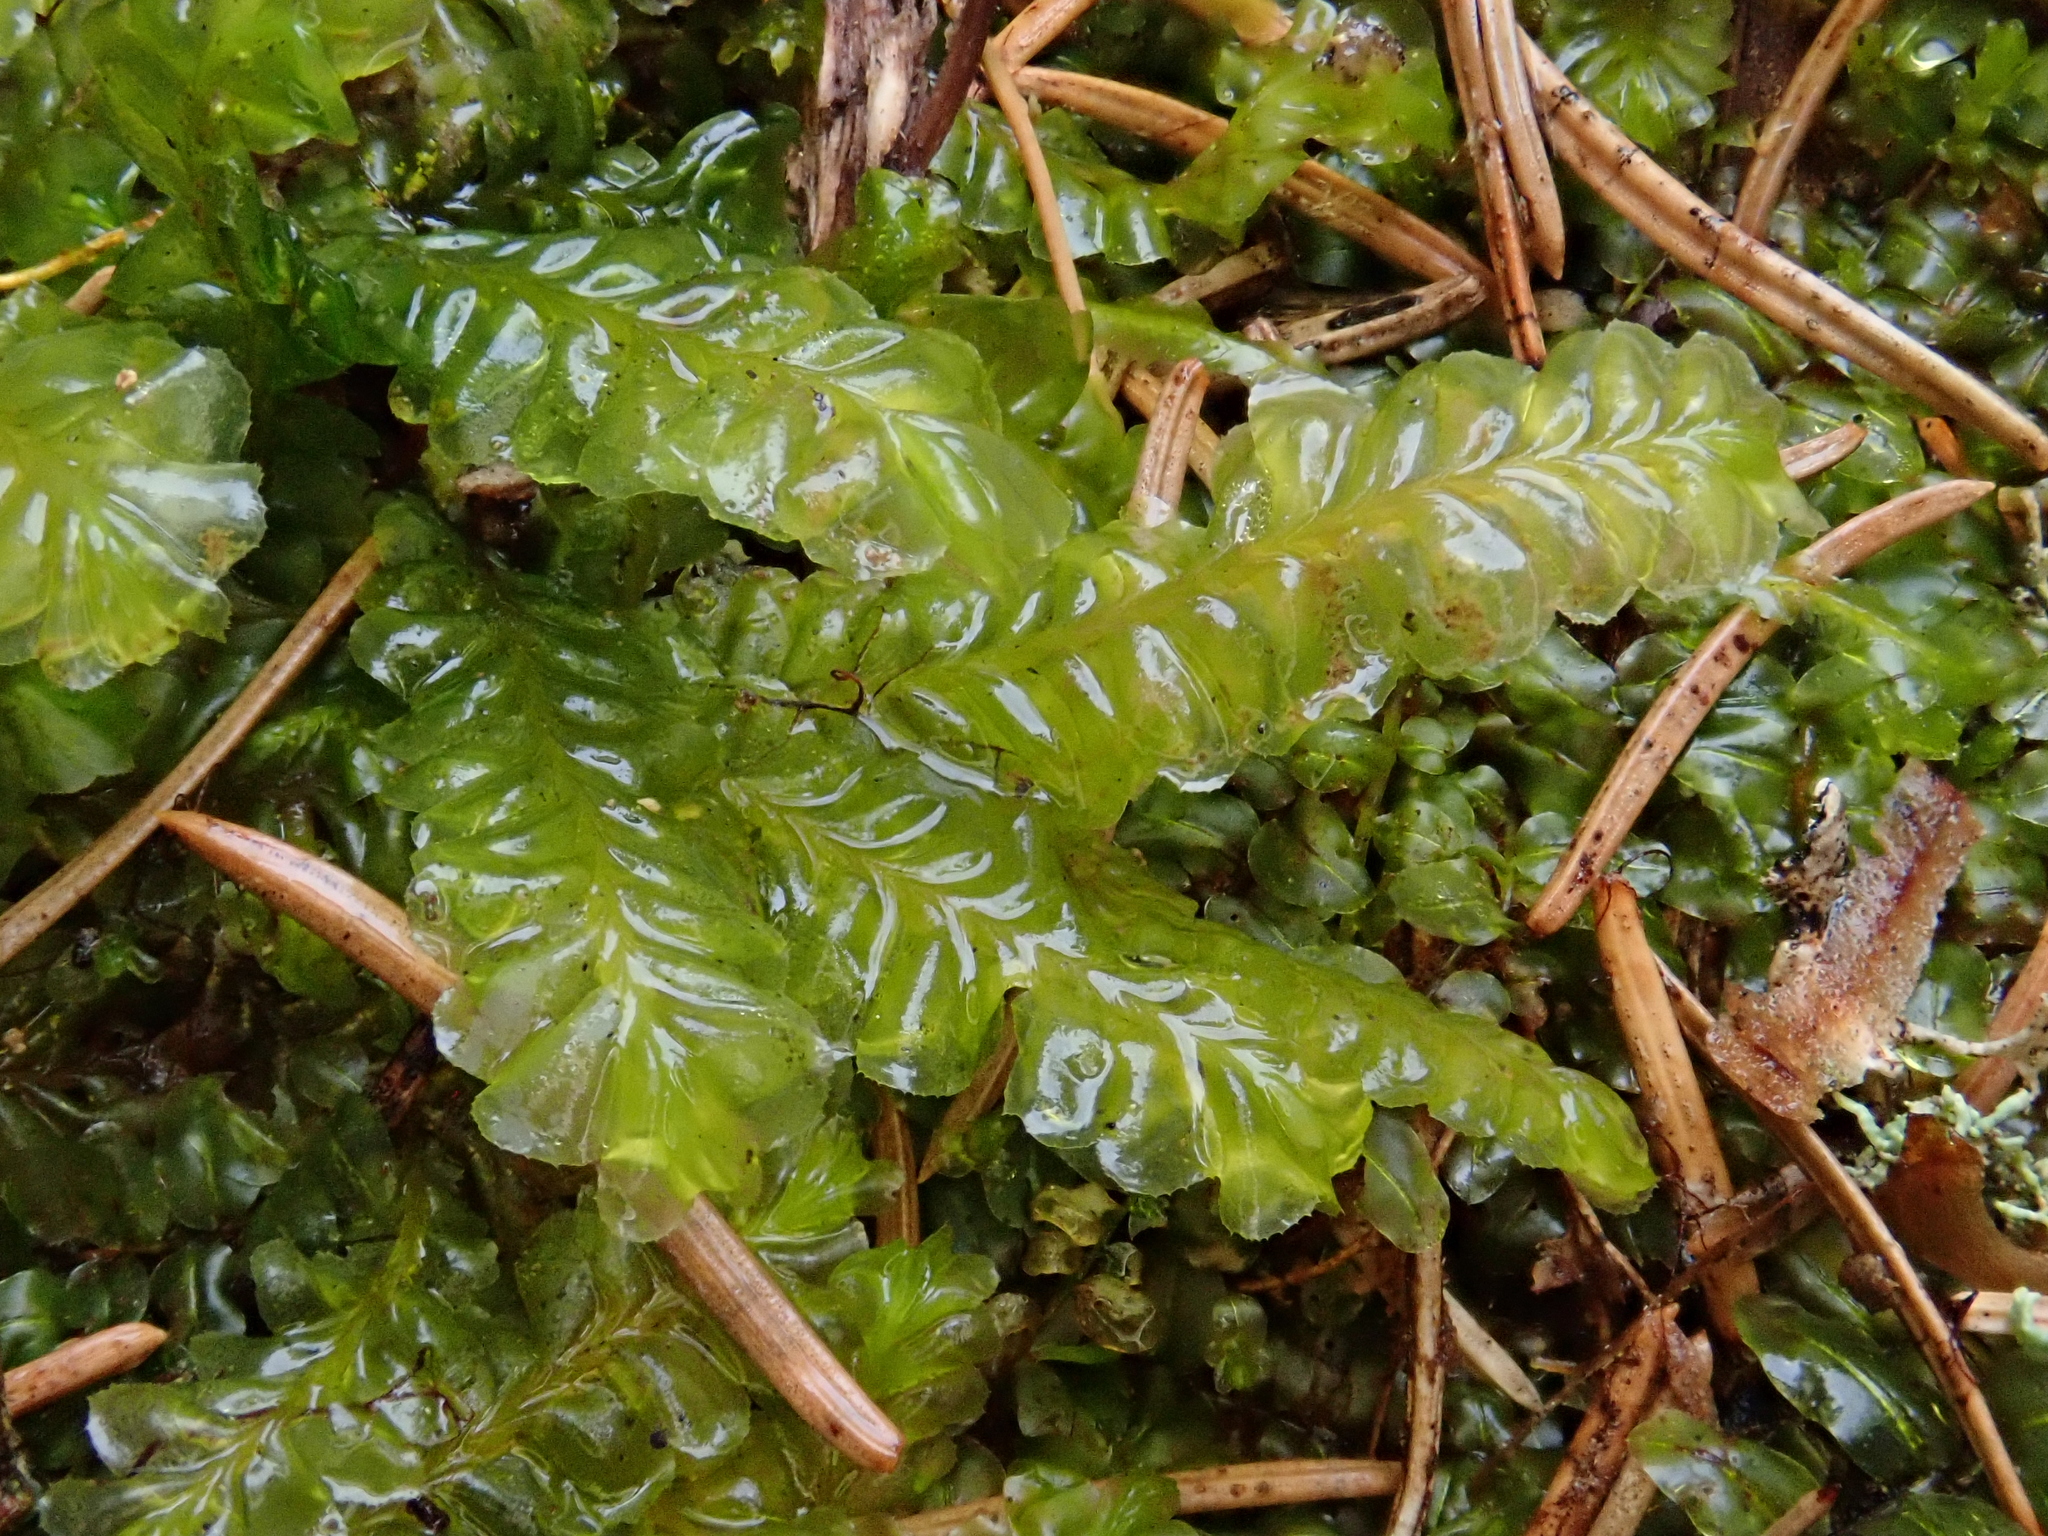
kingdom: Plantae
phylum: Marchantiophyta
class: Jungermanniopsida
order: Jungermanniales
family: Plagiochilaceae
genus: Plagiochila
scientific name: Plagiochila asplenioides
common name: Greater featherwort
